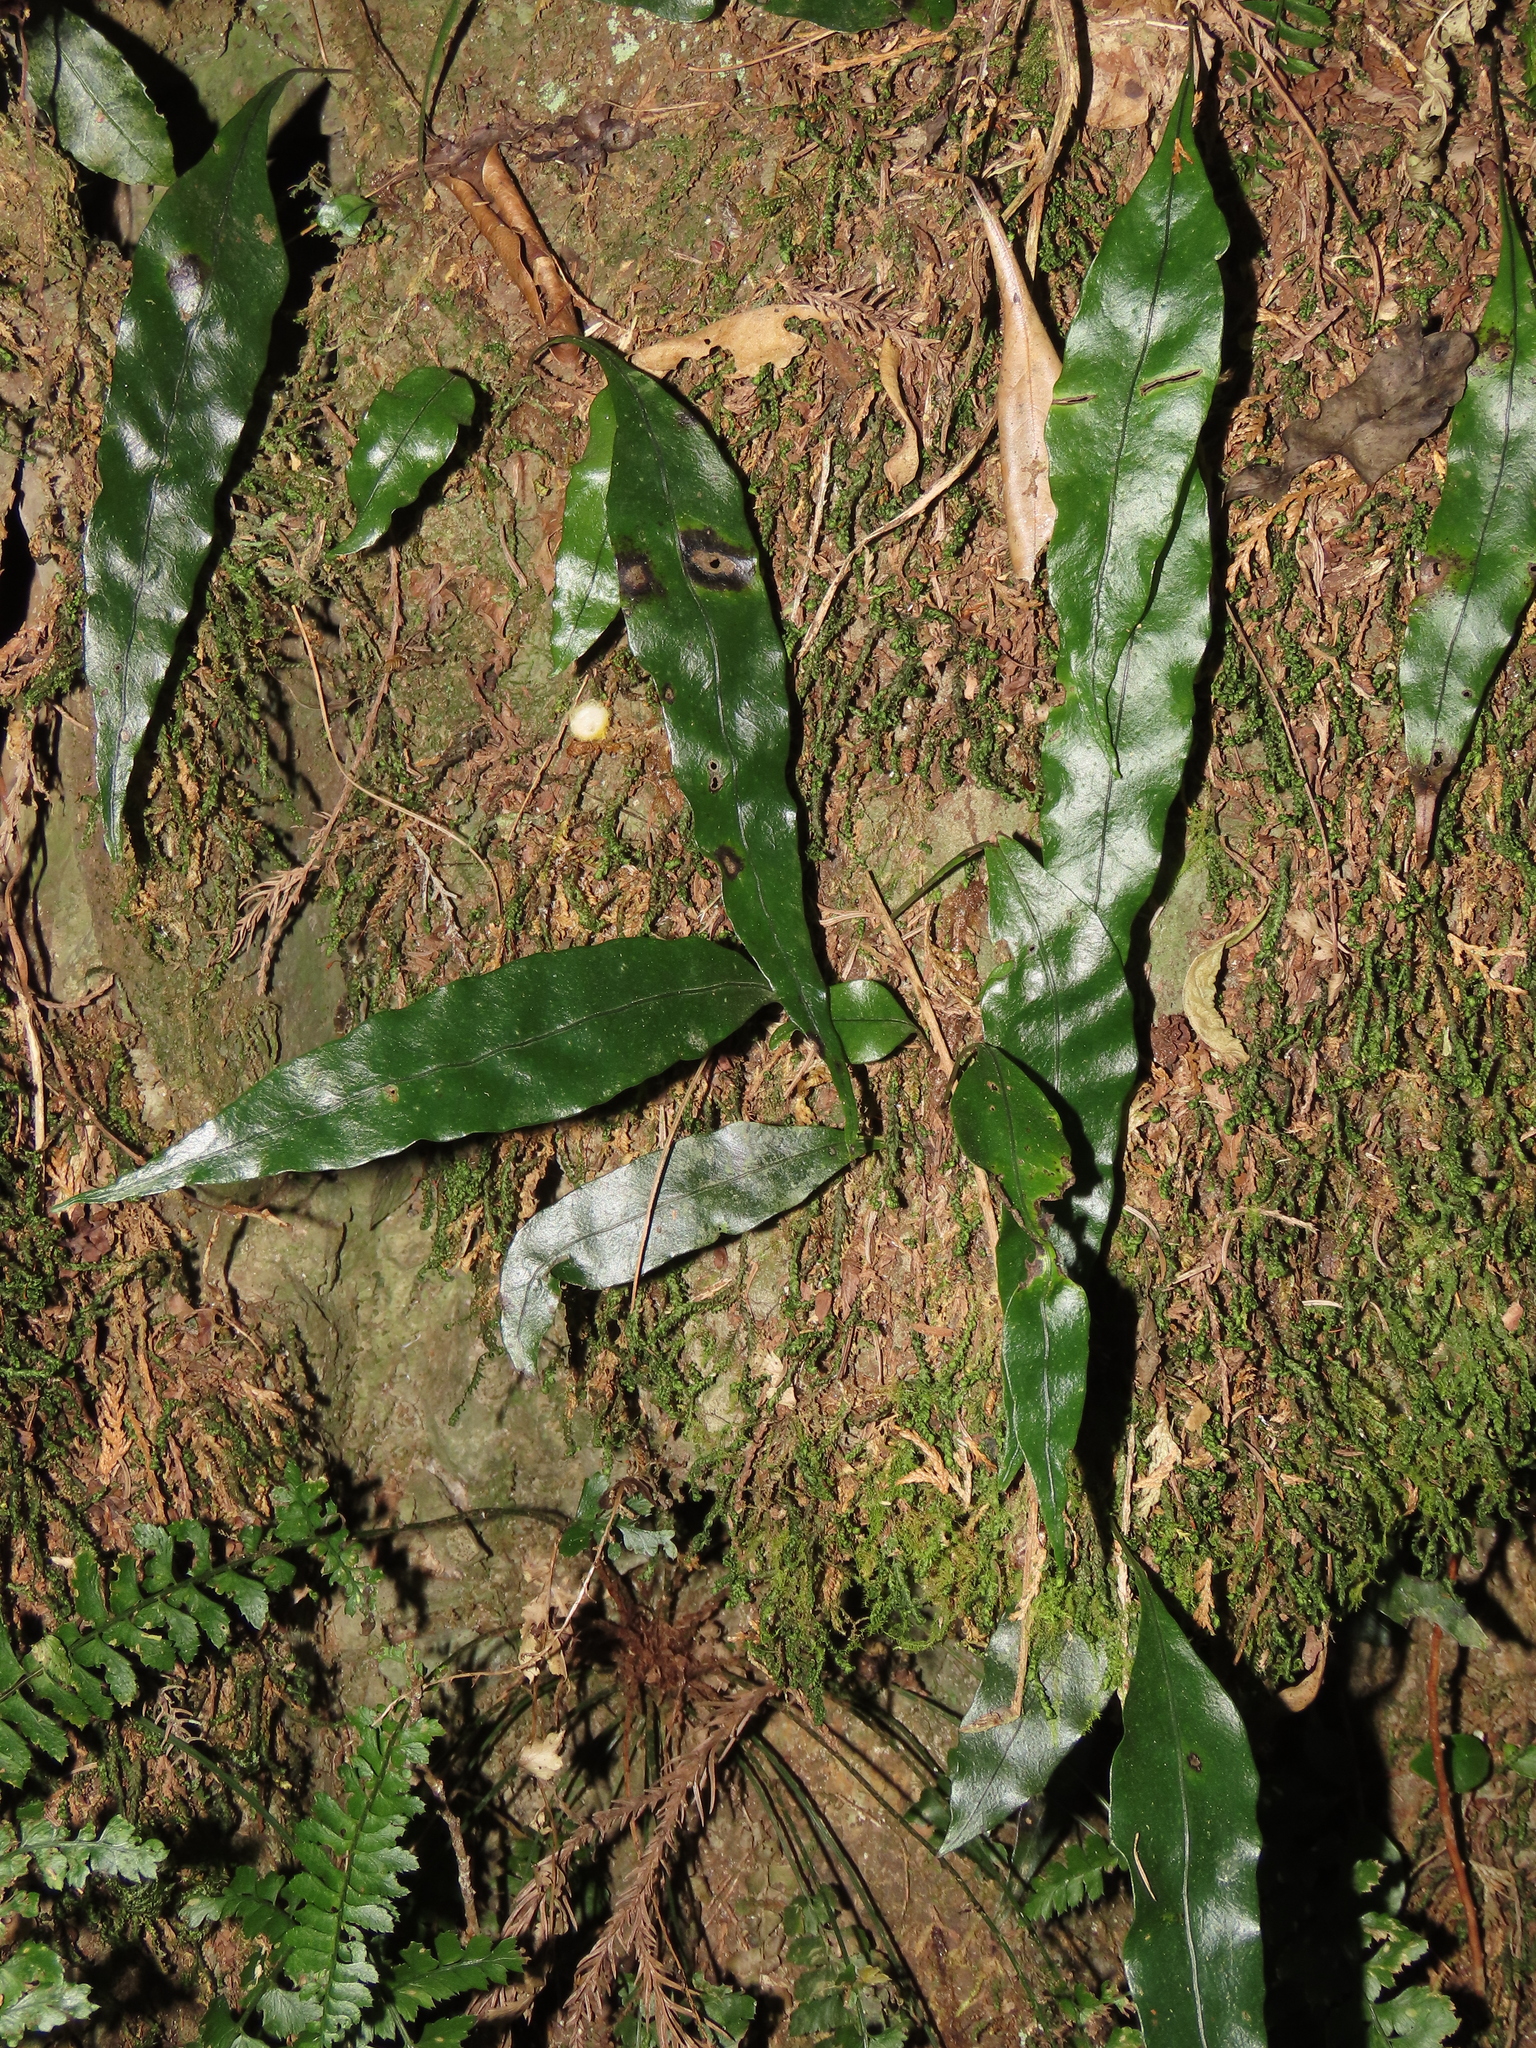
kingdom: Plantae
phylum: Tracheophyta
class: Polypodiopsida
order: Polypodiales
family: Polypodiaceae
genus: Lepisorus
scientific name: Lepisorus superficialis
